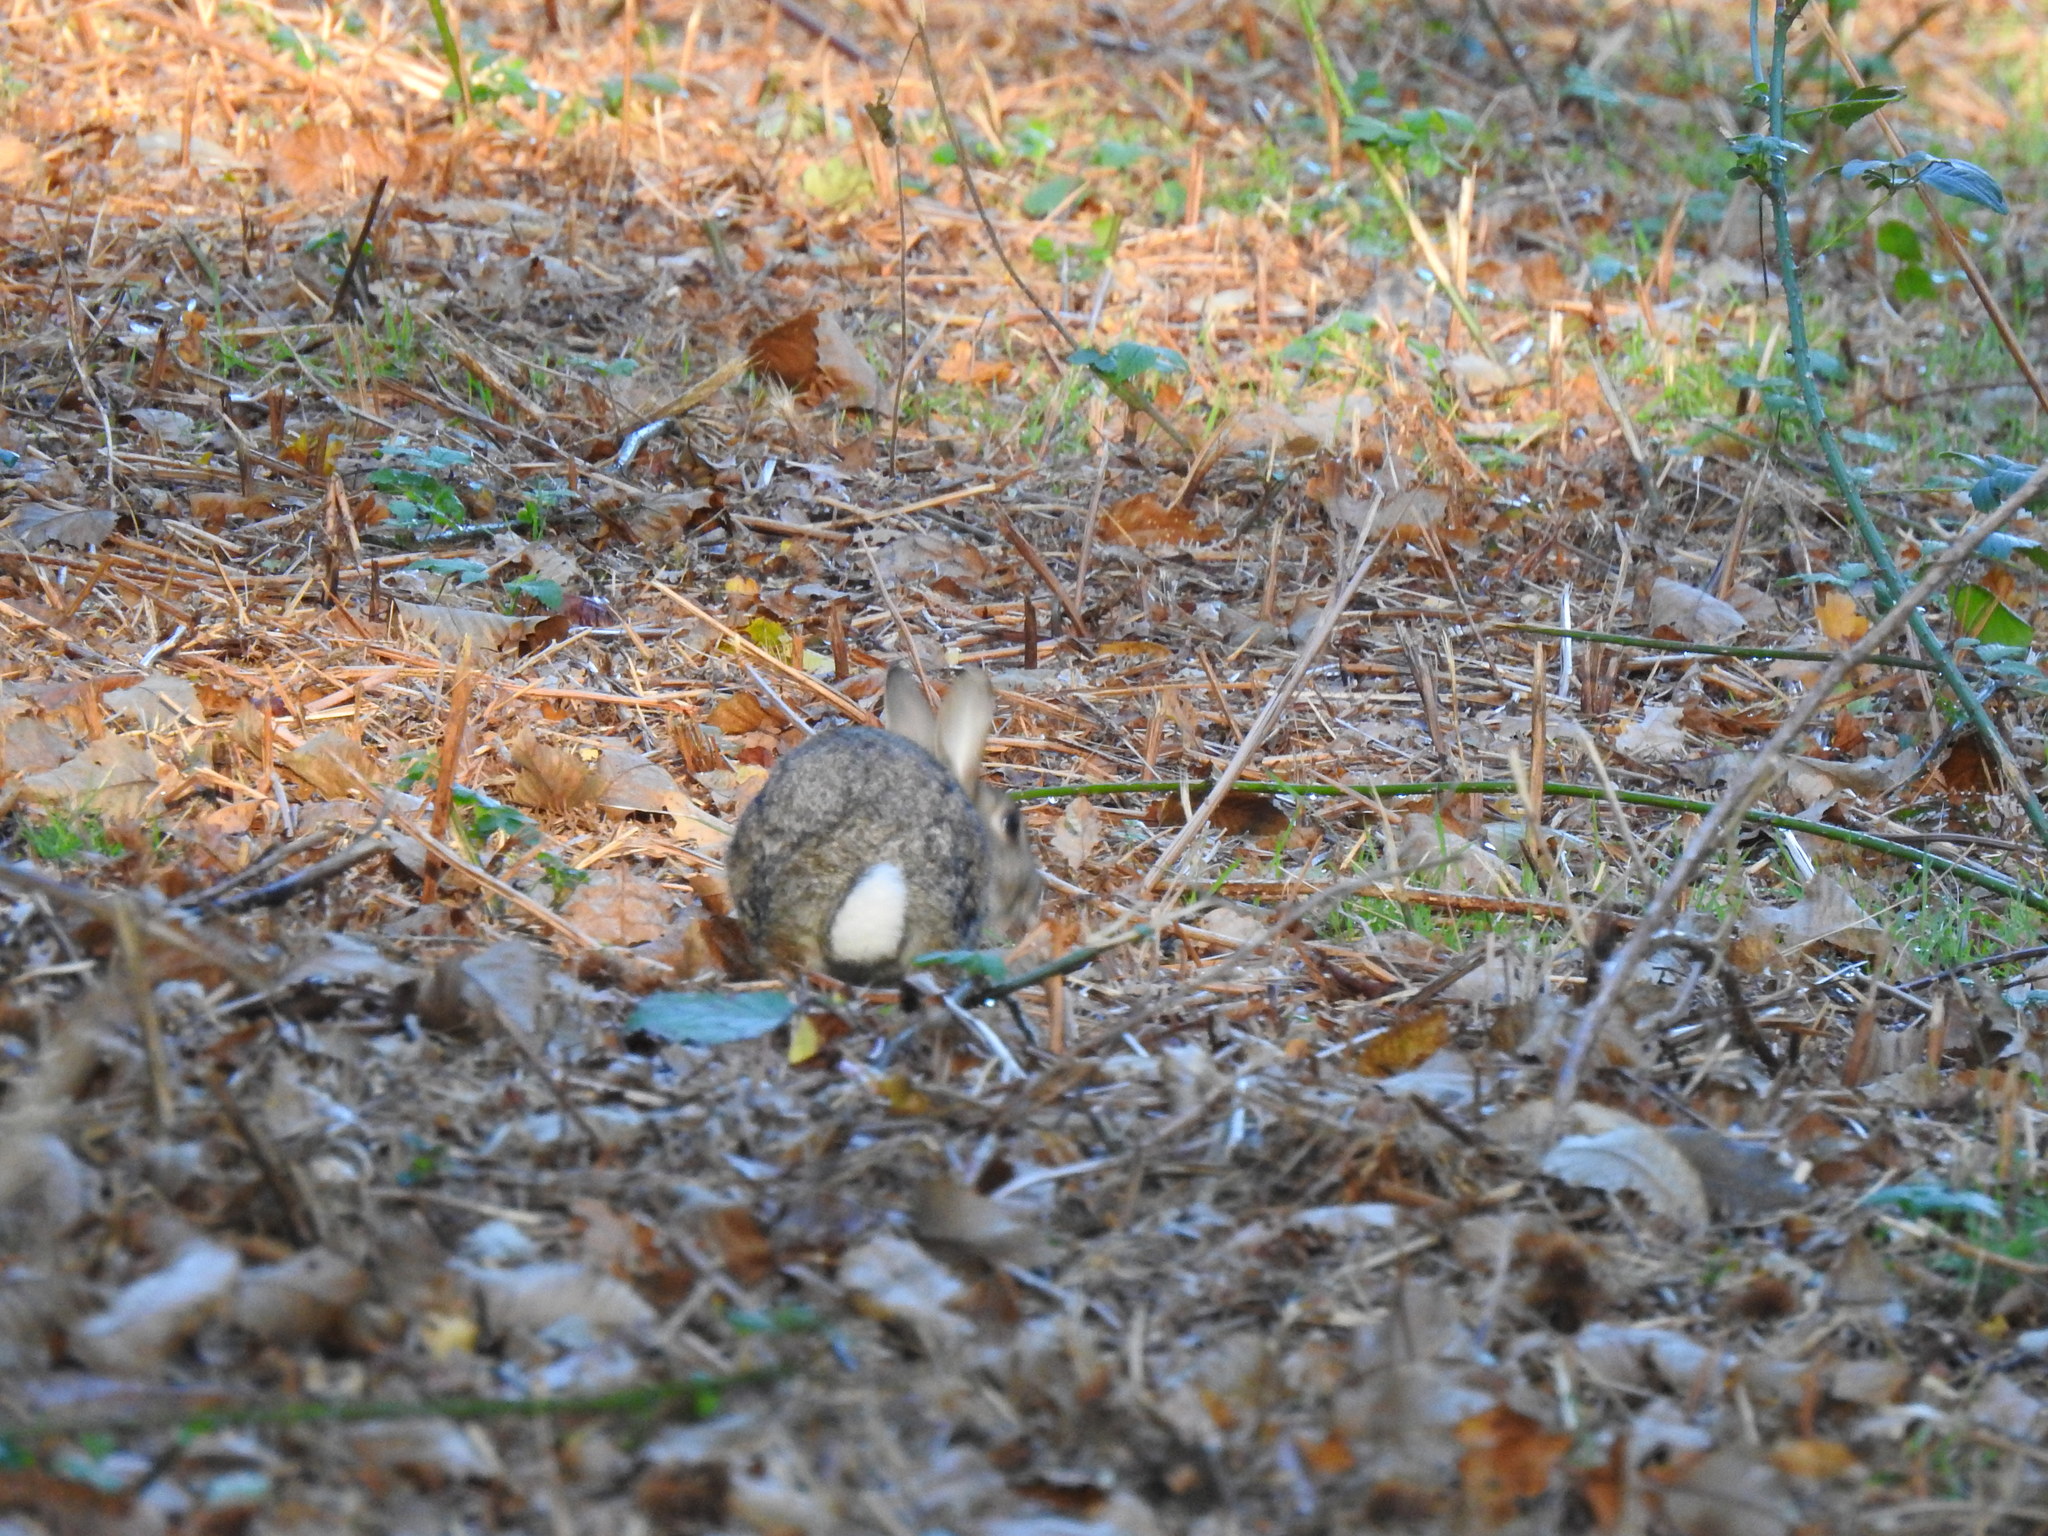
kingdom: Animalia
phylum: Chordata
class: Mammalia
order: Lagomorpha
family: Leporidae
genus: Oryctolagus
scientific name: Oryctolagus cuniculus
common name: European rabbit
